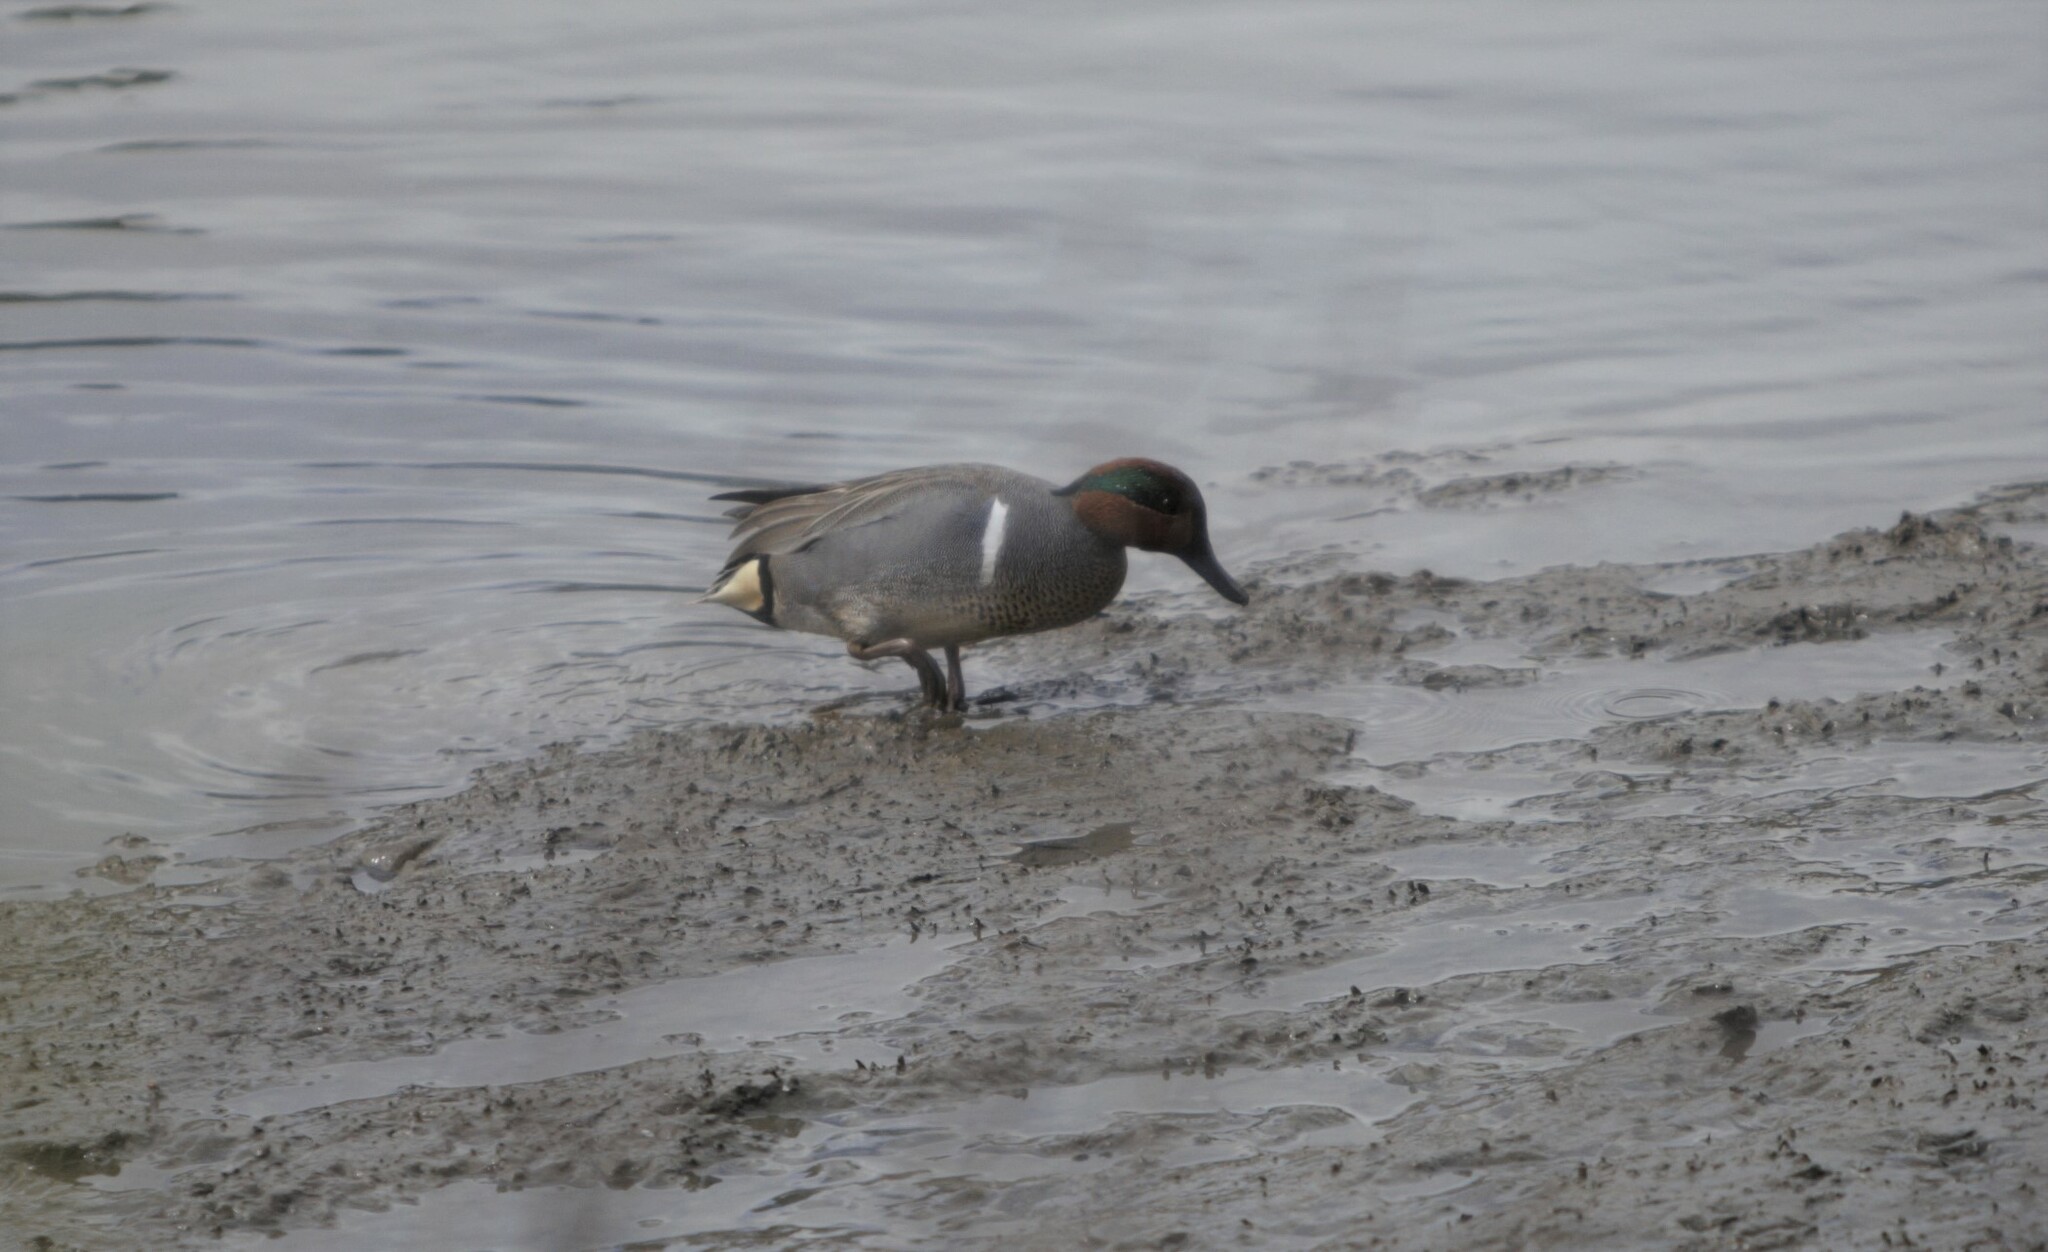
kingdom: Animalia
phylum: Chordata
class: Aves
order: Anseriformes
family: Anatidae
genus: Anas
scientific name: Anas crecca
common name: Eurasian teal
